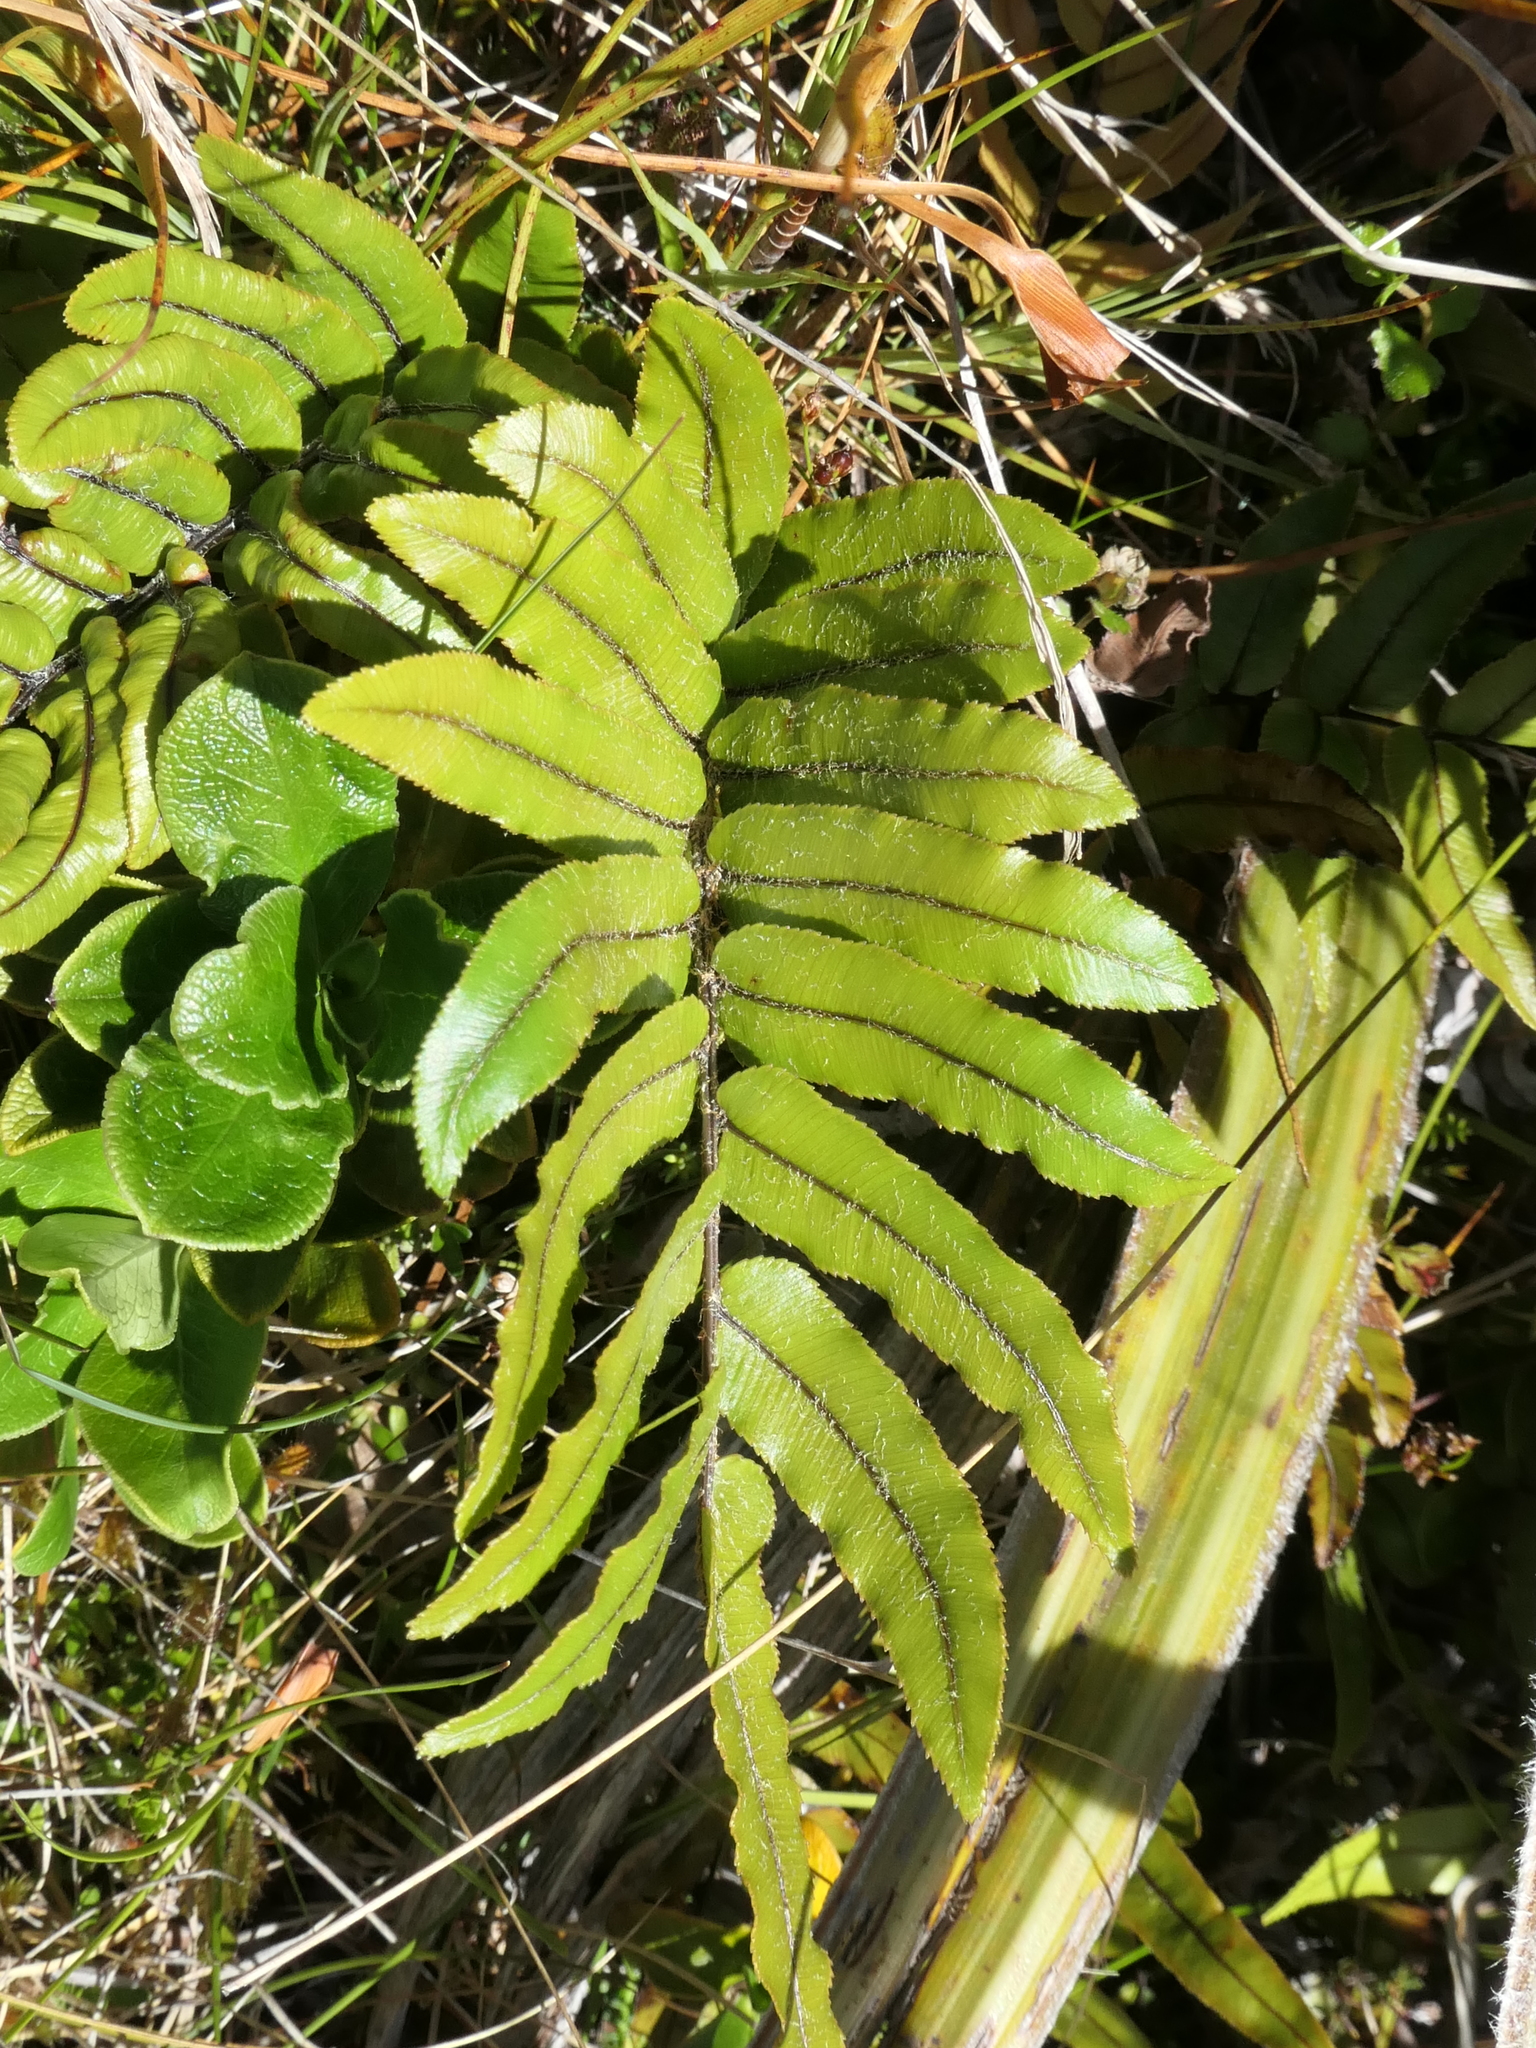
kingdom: Plantae
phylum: Tracheophyta
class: Polypodiopsida
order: Polypodiales
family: Blechnaceae
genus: Parablechnum
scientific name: Parablechnum procerum
